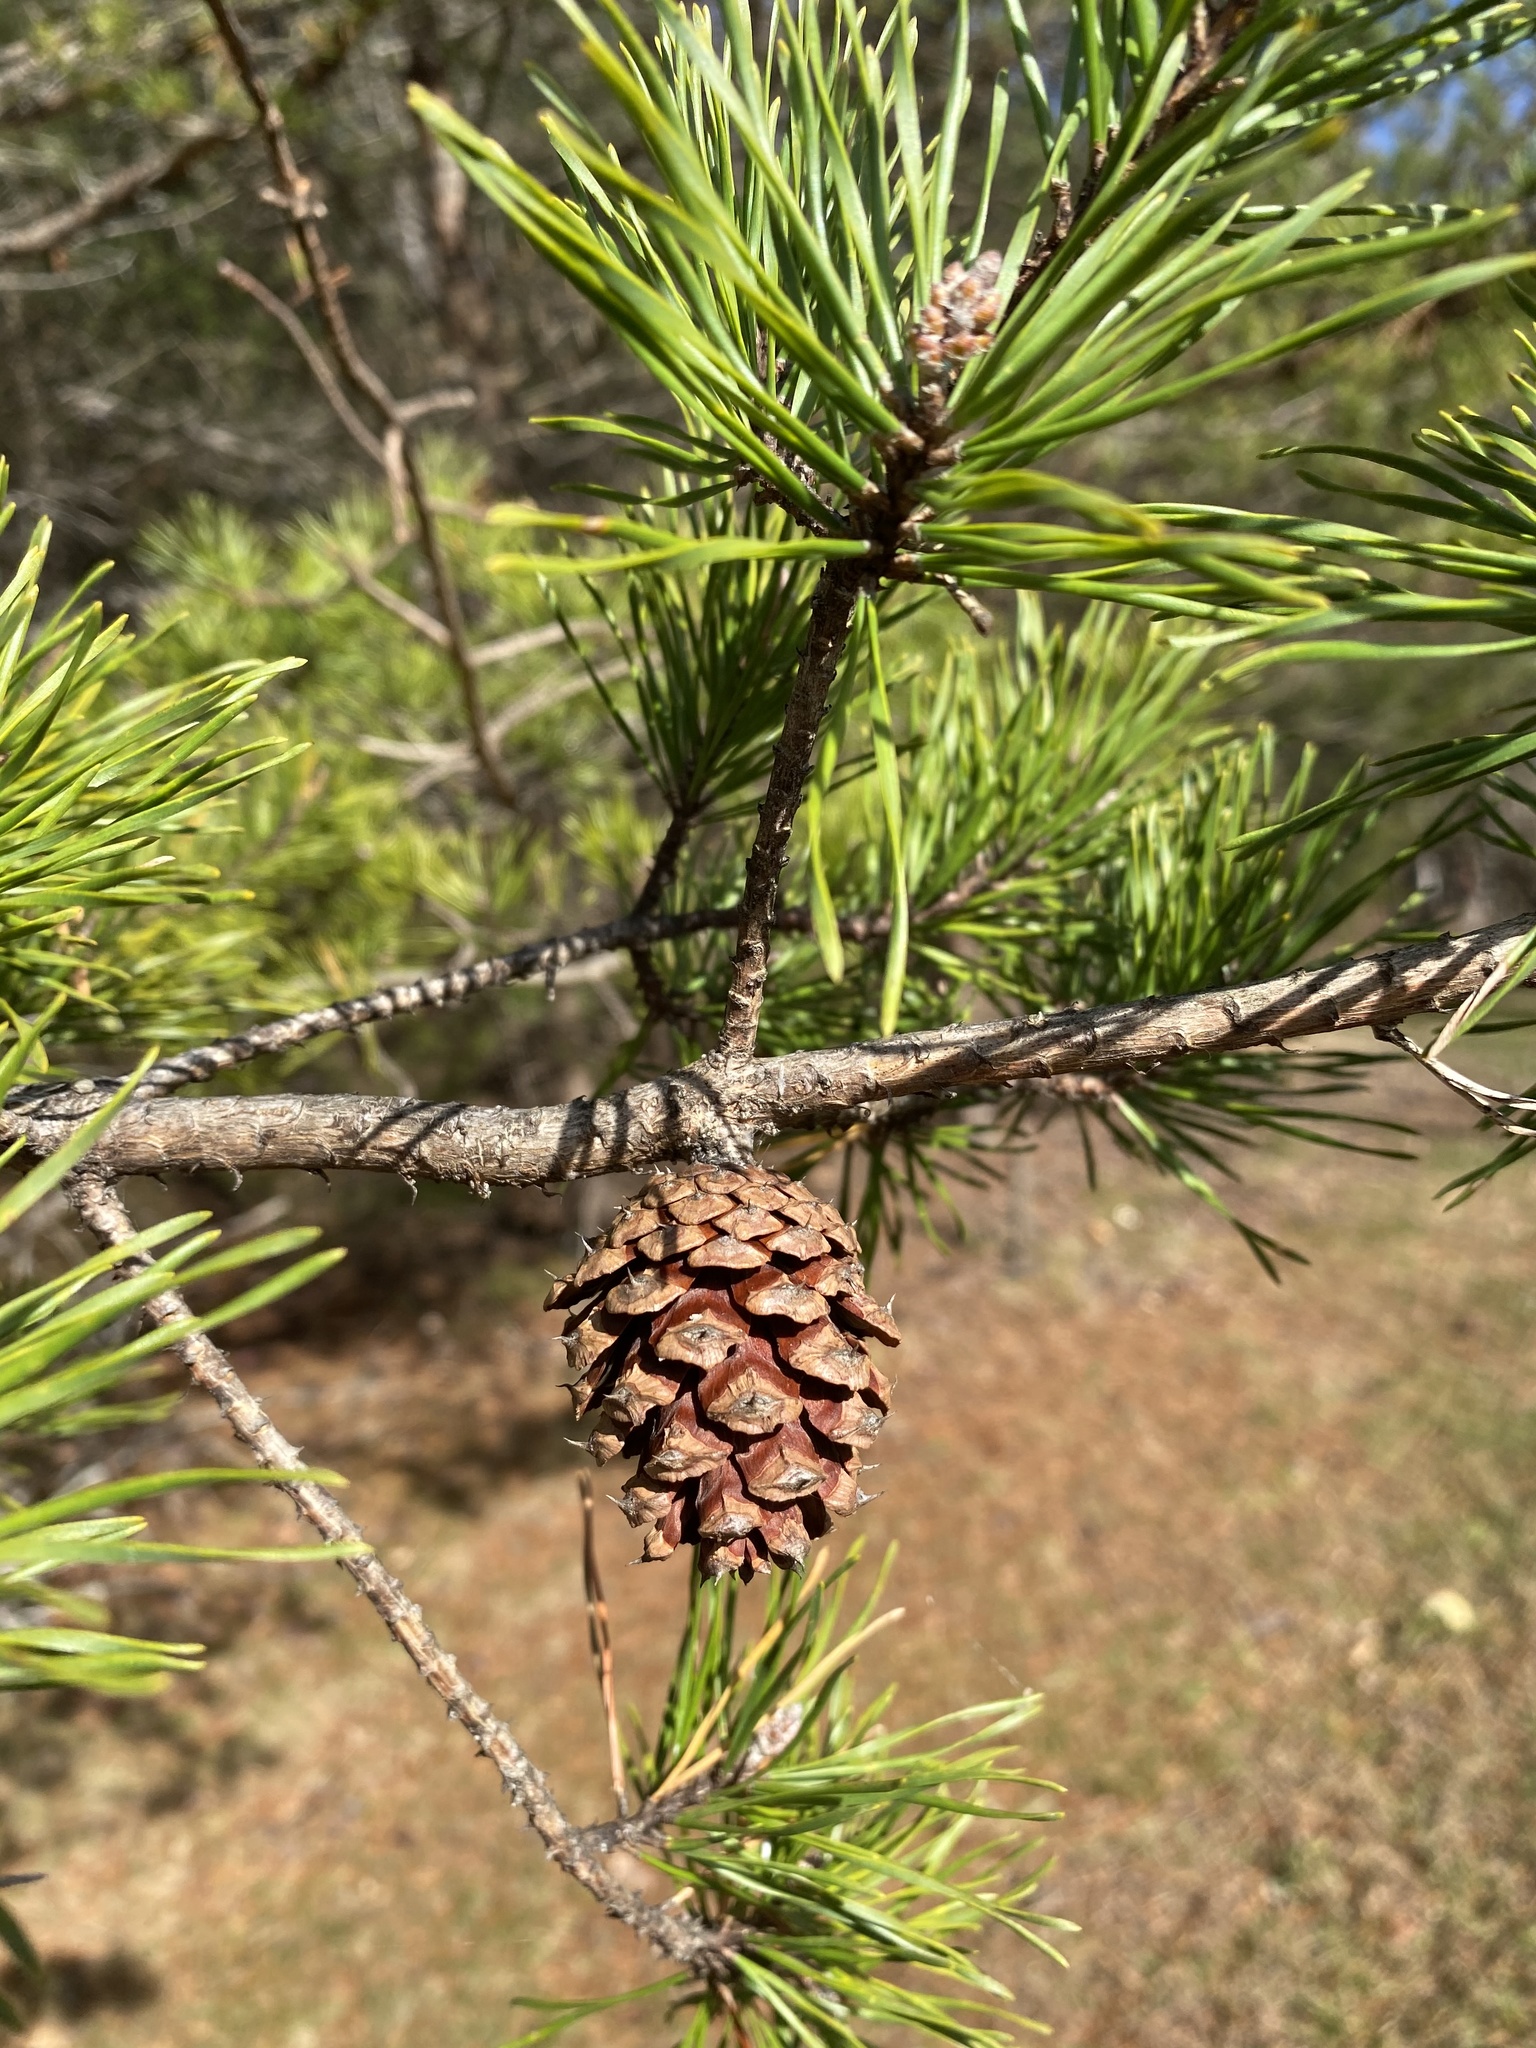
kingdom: Plantae
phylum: Tracheophyta
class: Pinopsida
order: Pinales
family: Pinaceae
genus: Pinus
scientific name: Pinus virginiana
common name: Scrub pine
